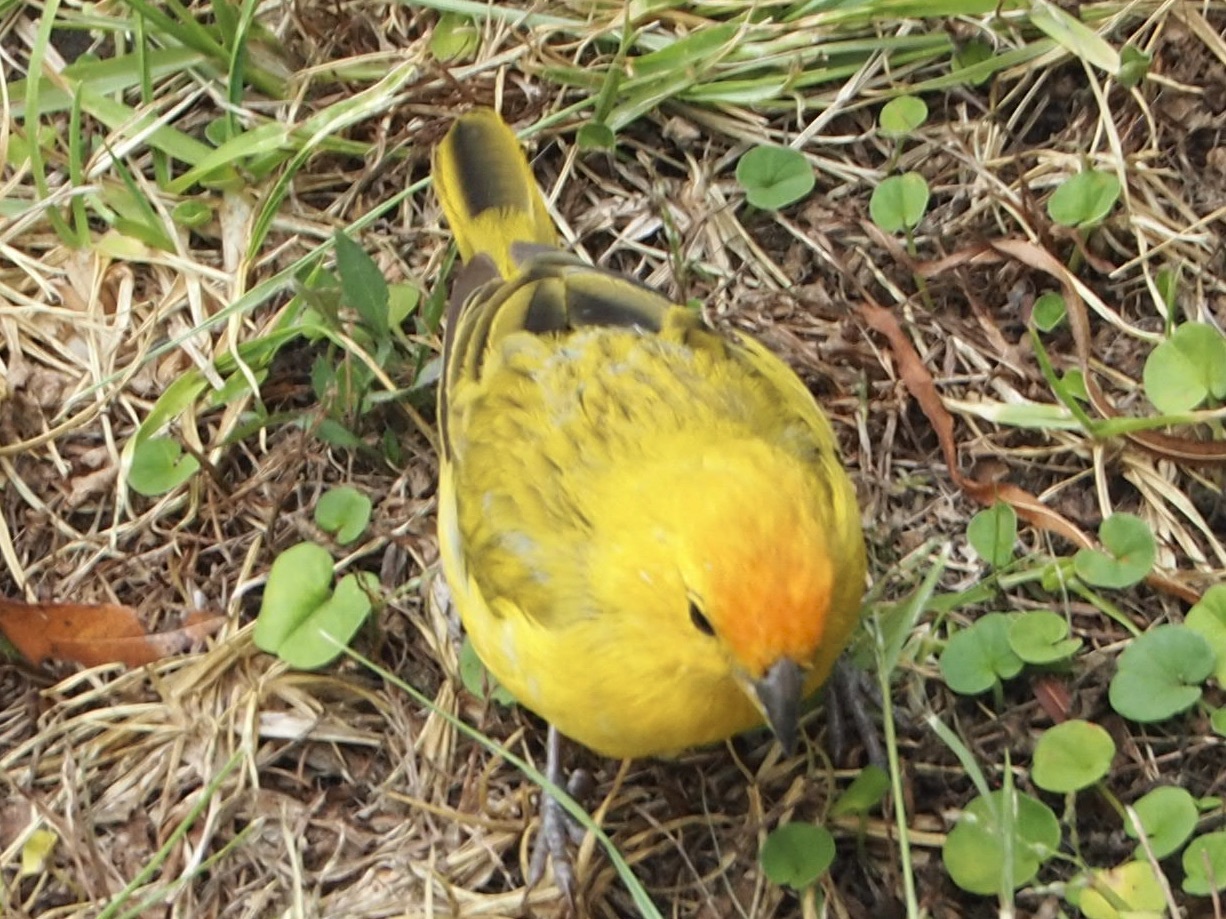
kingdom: Animalia
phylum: Chordata
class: Aves
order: Passeriformes
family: Thraupidae
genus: Sicalis
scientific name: Sicalis flaveola
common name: Saffron finch
